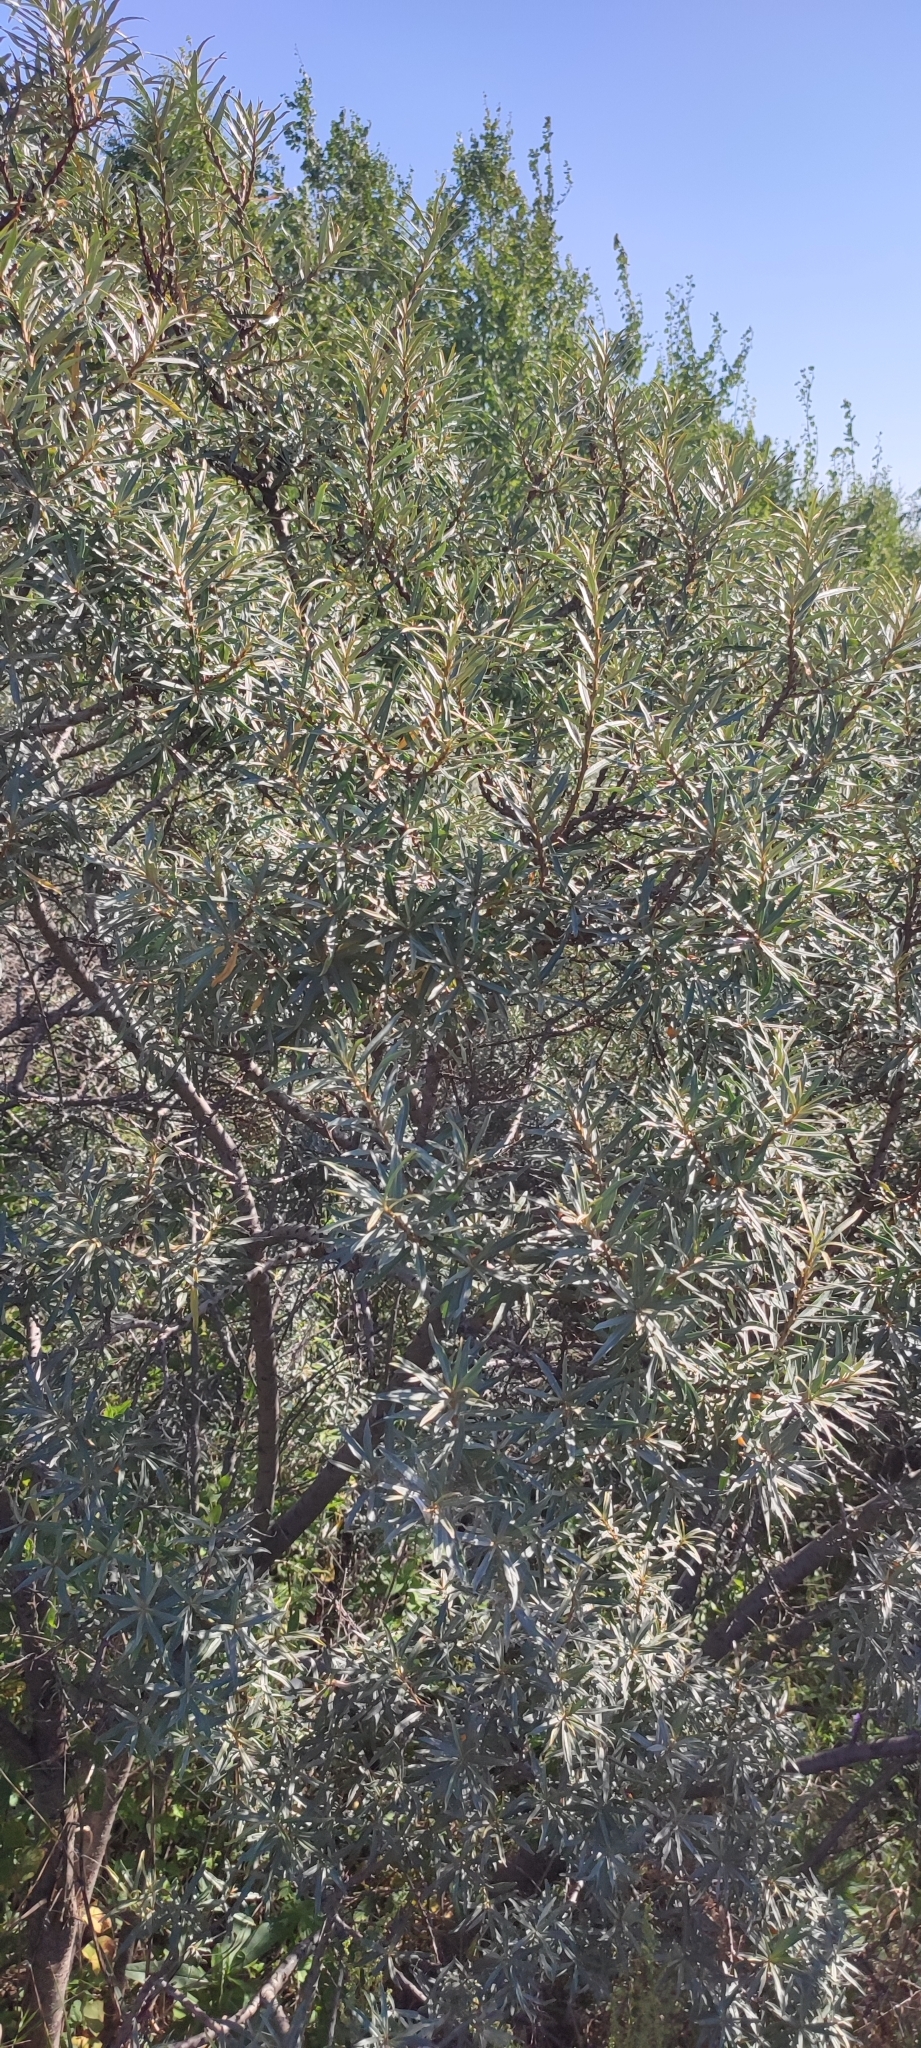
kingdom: Plantae
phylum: Tracheophyta
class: Magnoliopsida
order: Rosales
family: Elaeagnaceae
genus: Hippophae
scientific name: Hippophae rhamnoides
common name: Sea-buckthorn
